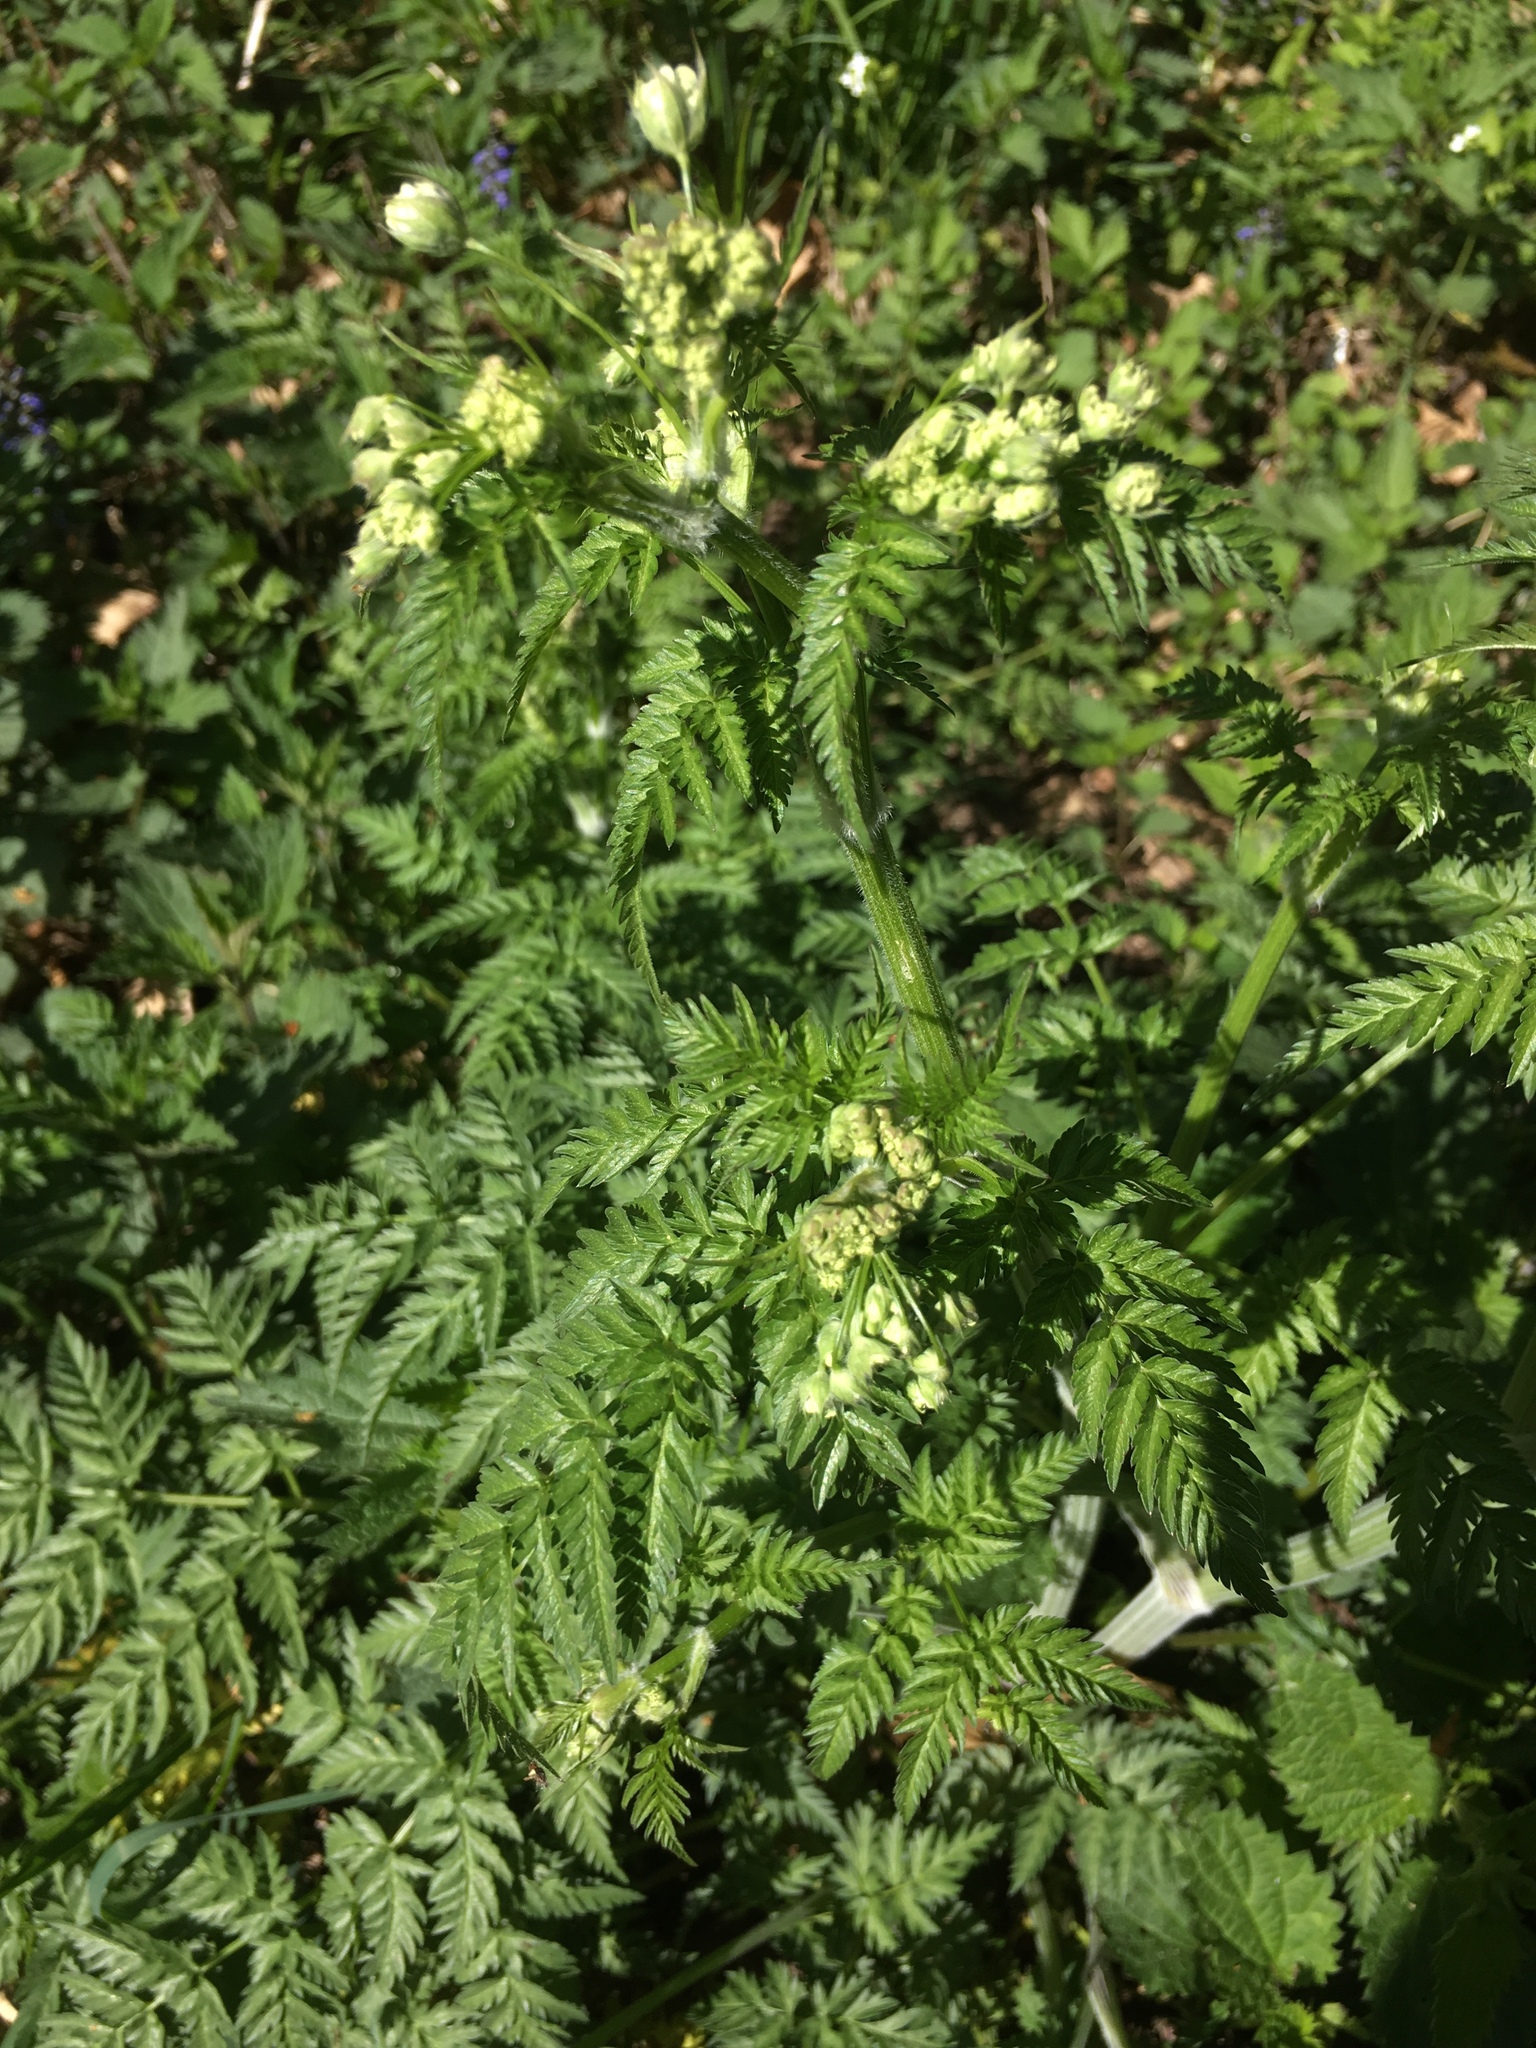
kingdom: Plantae
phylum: Tracheophyta
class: Magnoliopsida
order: Apiales
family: Apiaceae
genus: Anthriscus
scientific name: Anthriscus sylvestris
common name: Cow parsley
